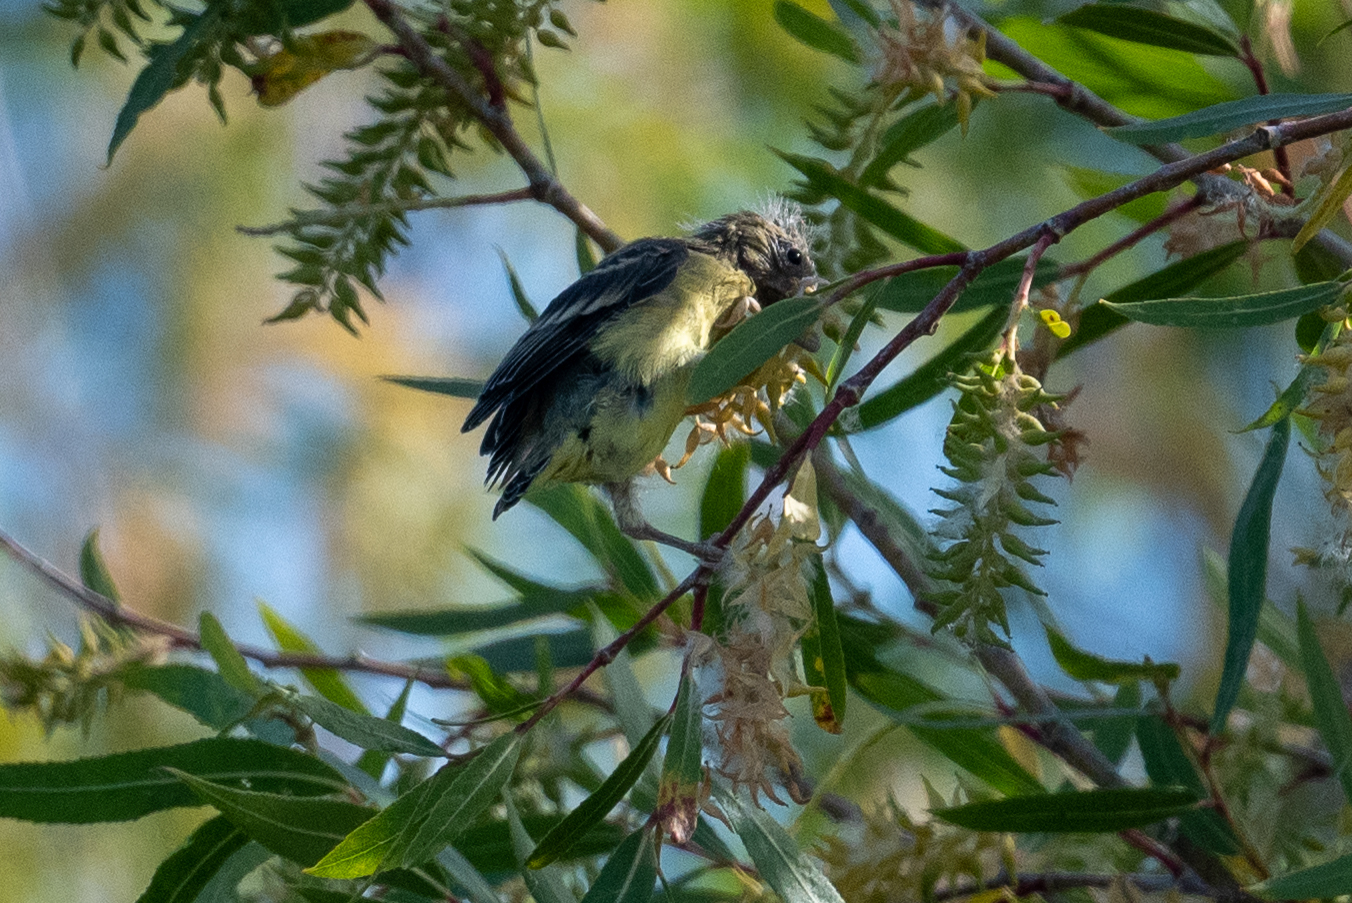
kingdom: Animalia
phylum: Chordata
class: Aves
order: Passeriformes
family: Fringillidae
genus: Spinus
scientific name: Spinus psaltria
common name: Lesser goldfinch
